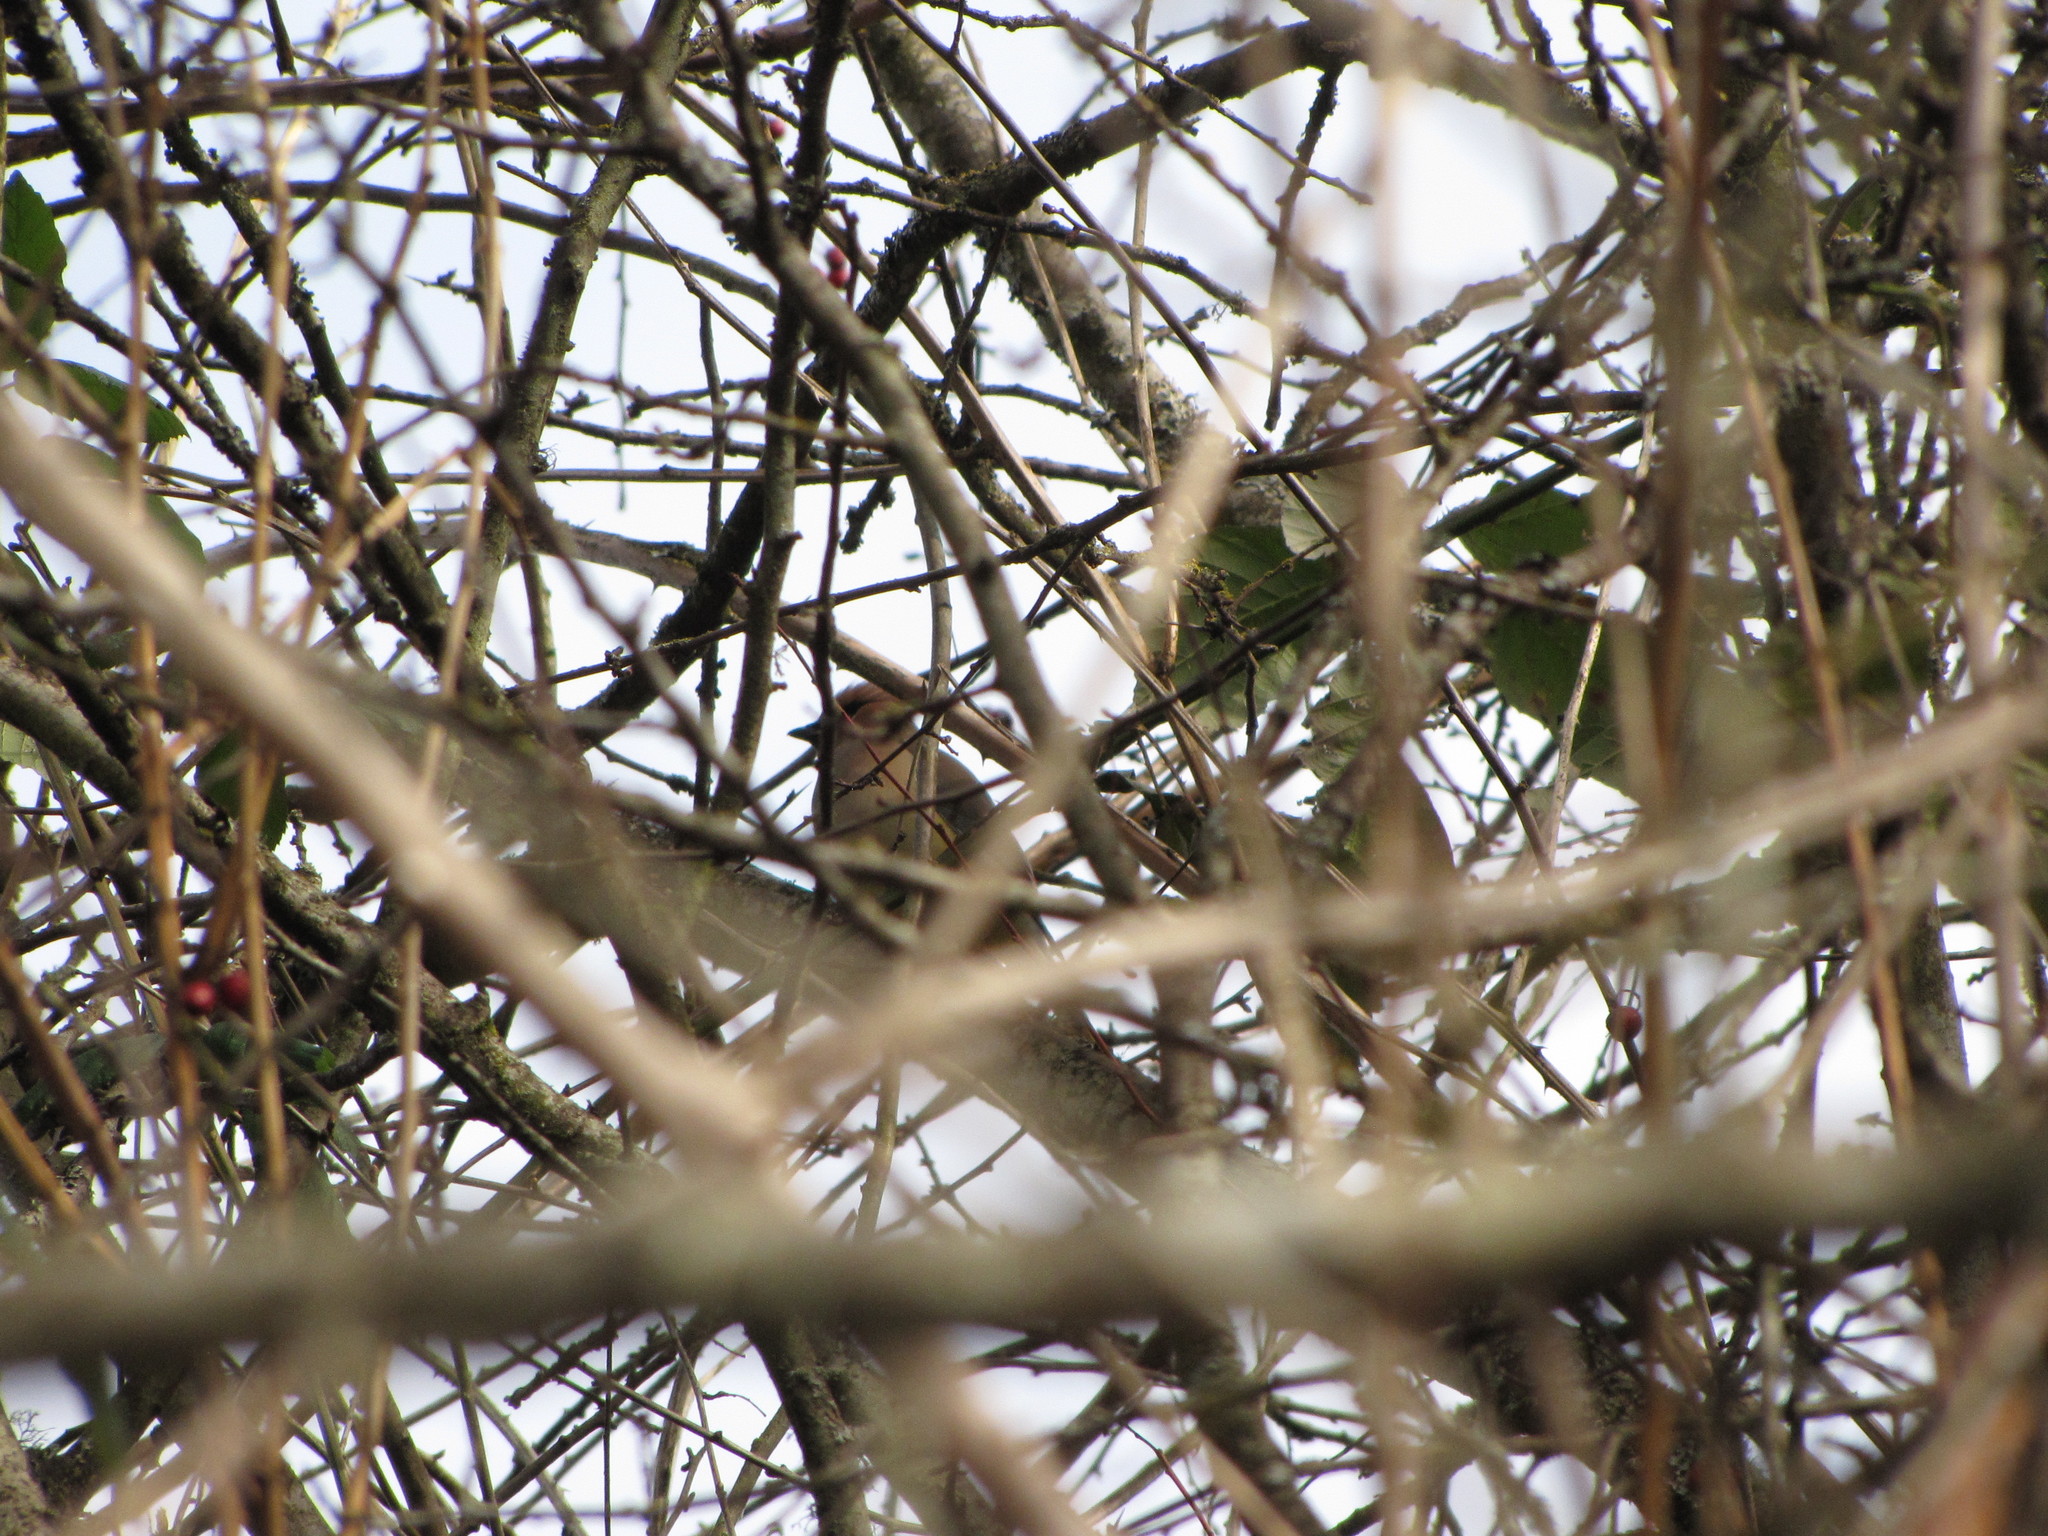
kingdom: Animalia
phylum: Chordata
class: Aves
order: Passeriformes
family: Bombycillidae
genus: Bombycilla
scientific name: Bombycilla cedrorum
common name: Cedar waxwing
